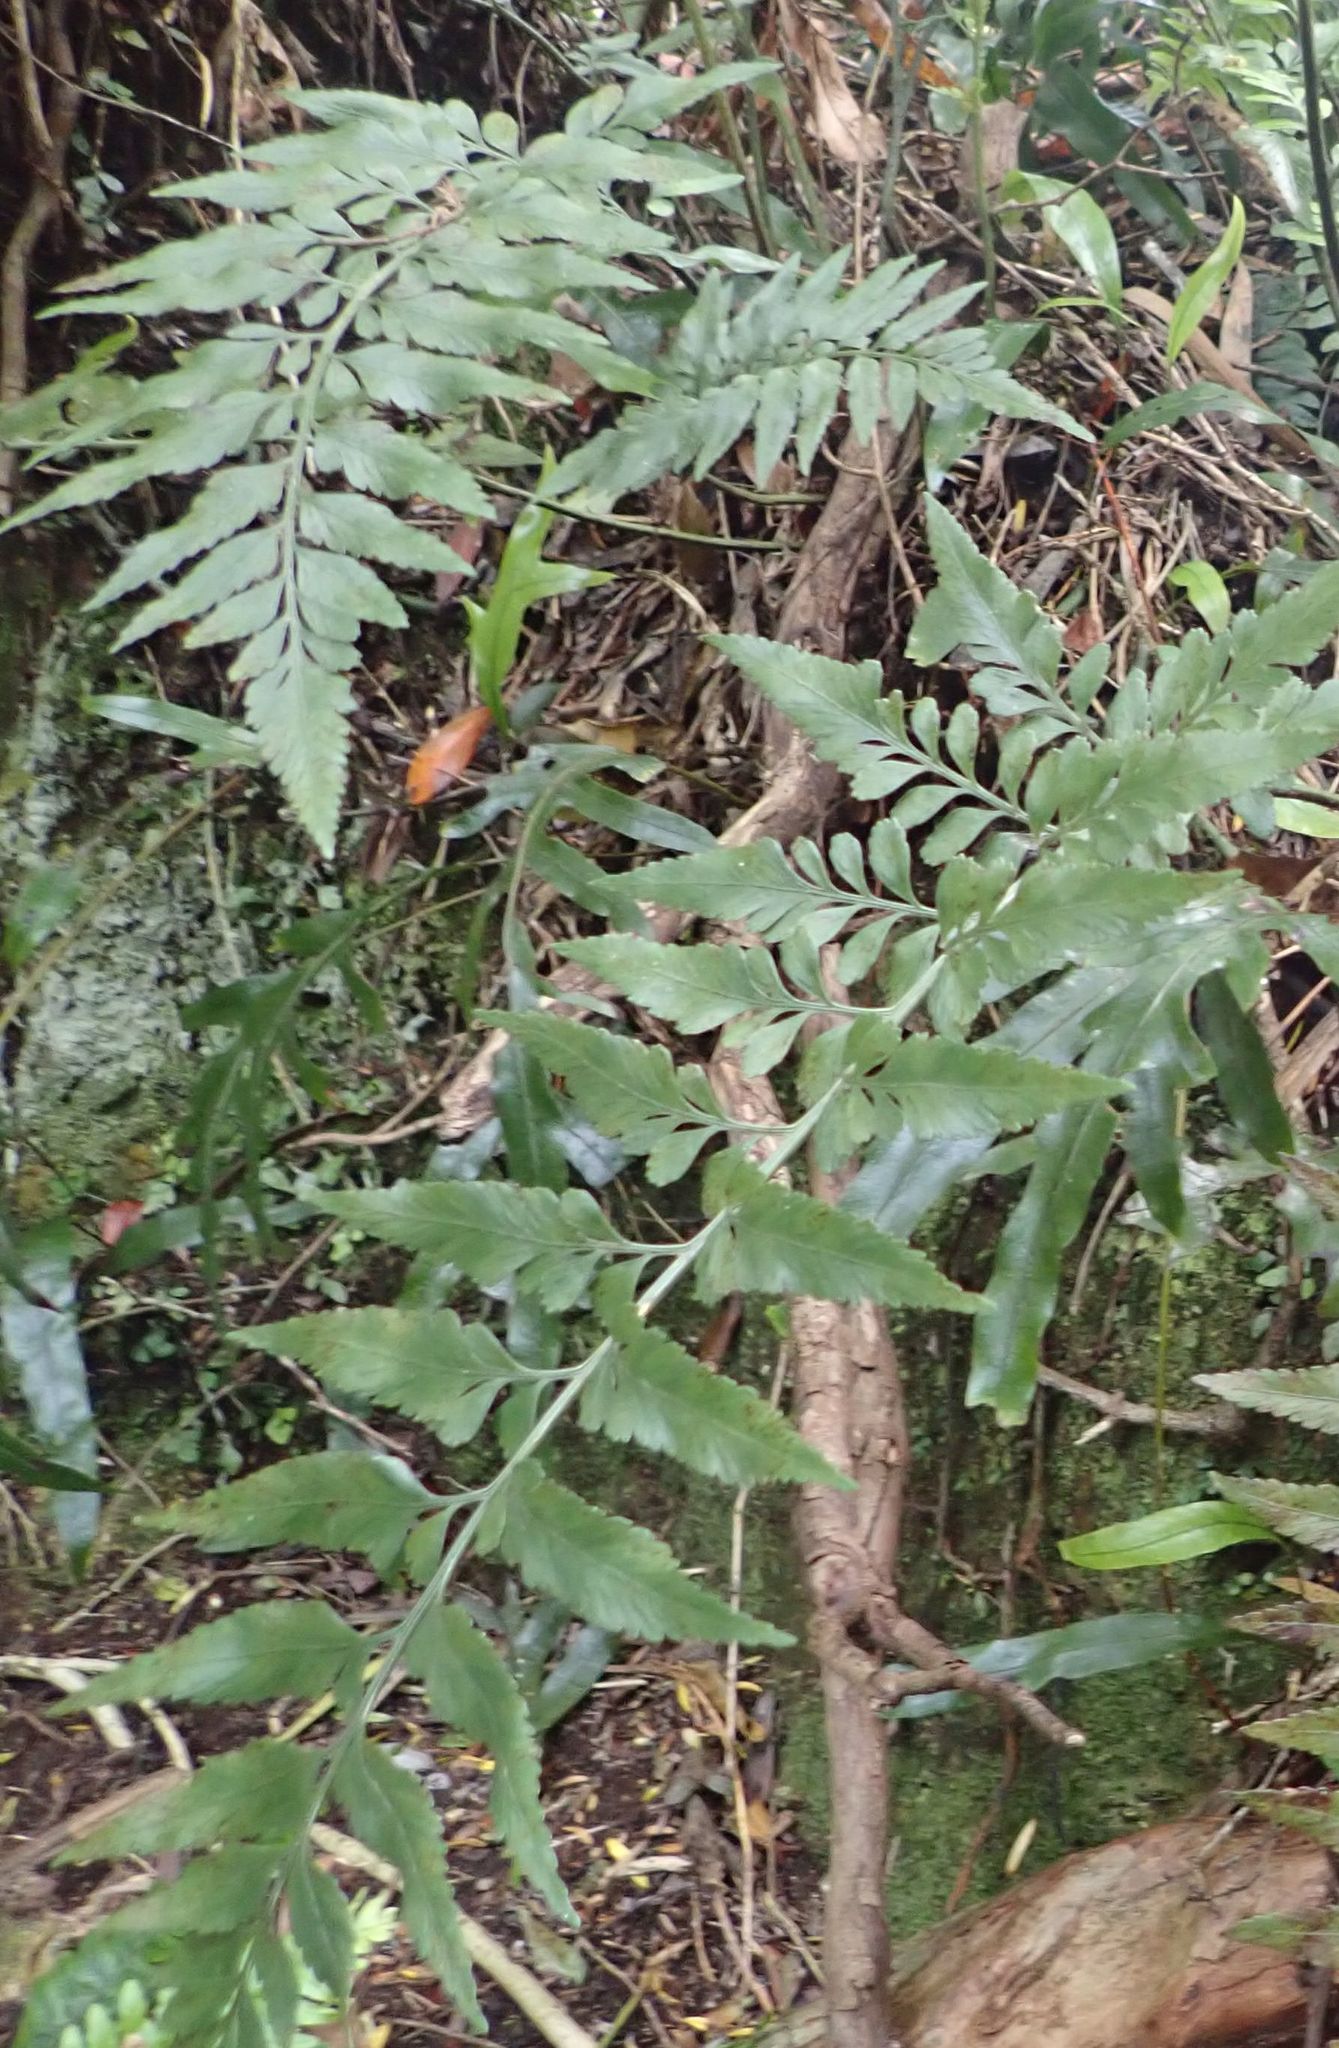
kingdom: Plantae
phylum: Tracheophyta
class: Polypodiopsida
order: Polypodiales
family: Aspleniaceae
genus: Asplenium
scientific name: Asplenium lyallii
